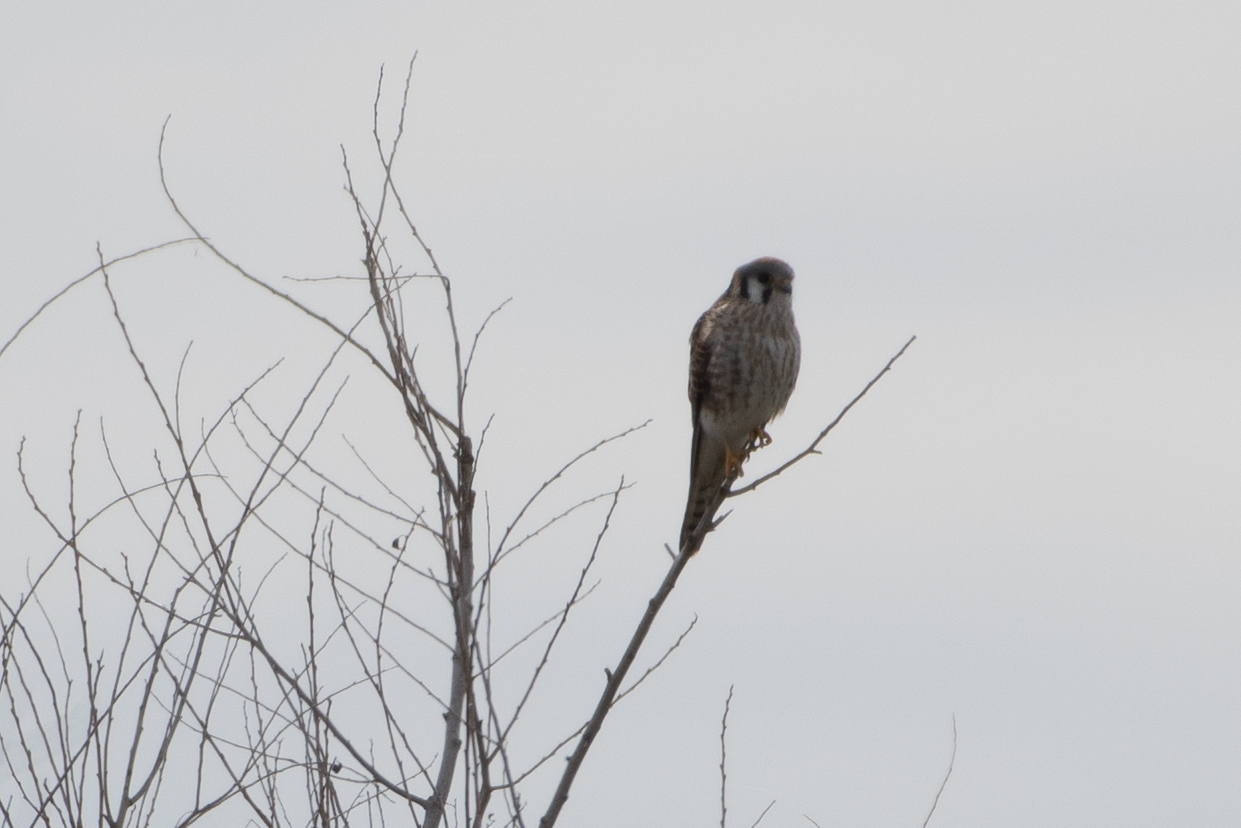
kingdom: Animalia
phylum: Chordata
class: Aves
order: Falconiformes
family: Falconidae
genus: Falco
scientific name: Falco sparverius
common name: American kestrel
